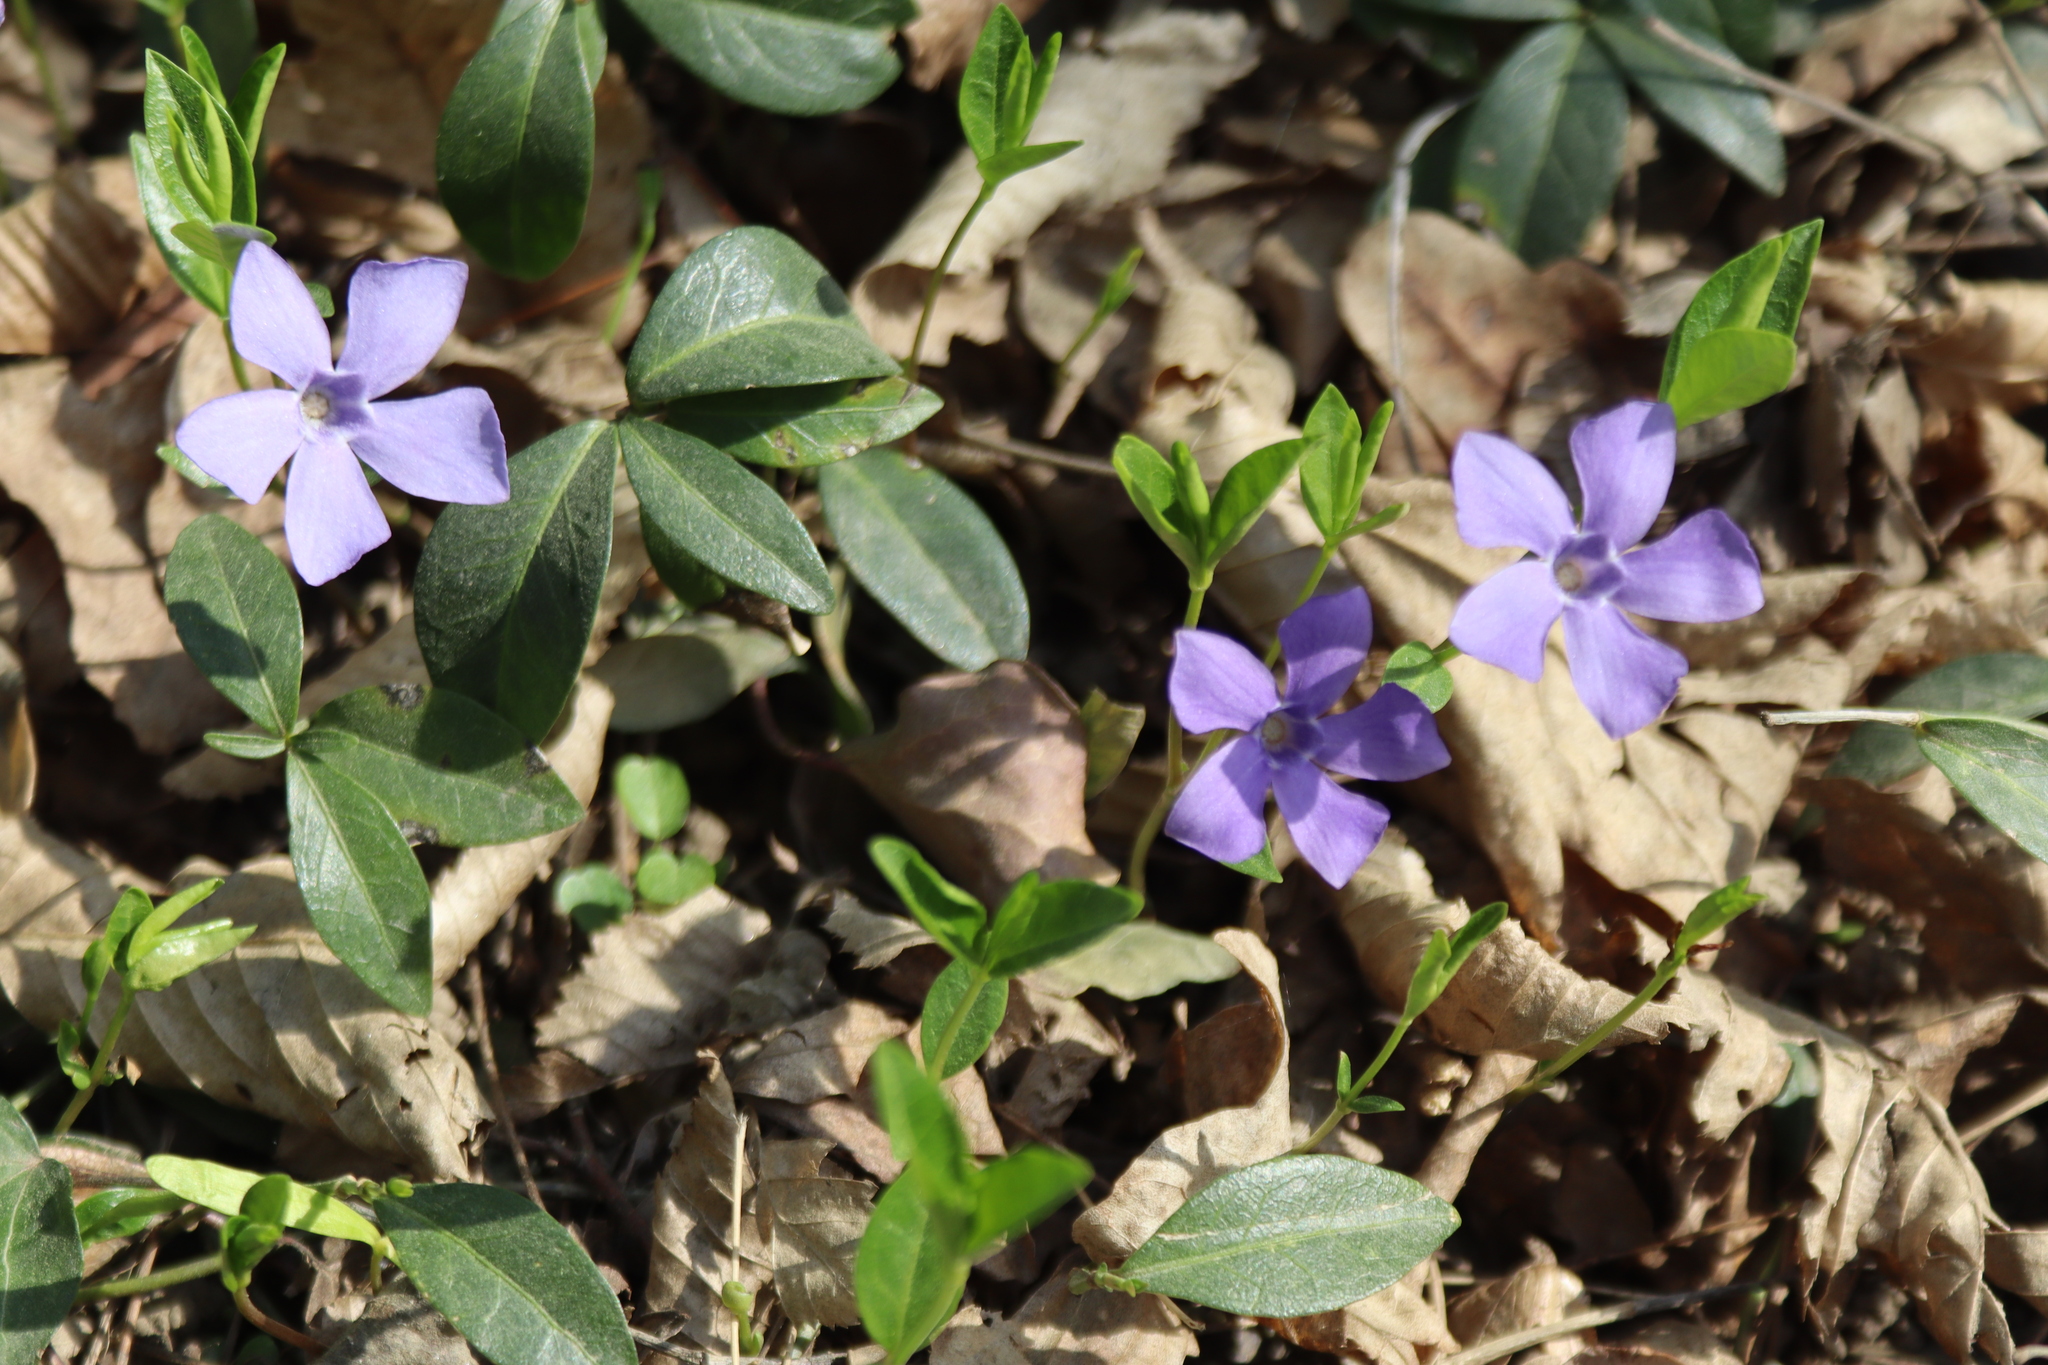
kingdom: Plantae
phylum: Tracheophyta
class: Magnoliopsida
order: Gentianales
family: Apocynaceae
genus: Vinca
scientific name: Vinca minor
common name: Lesser periwinkle
